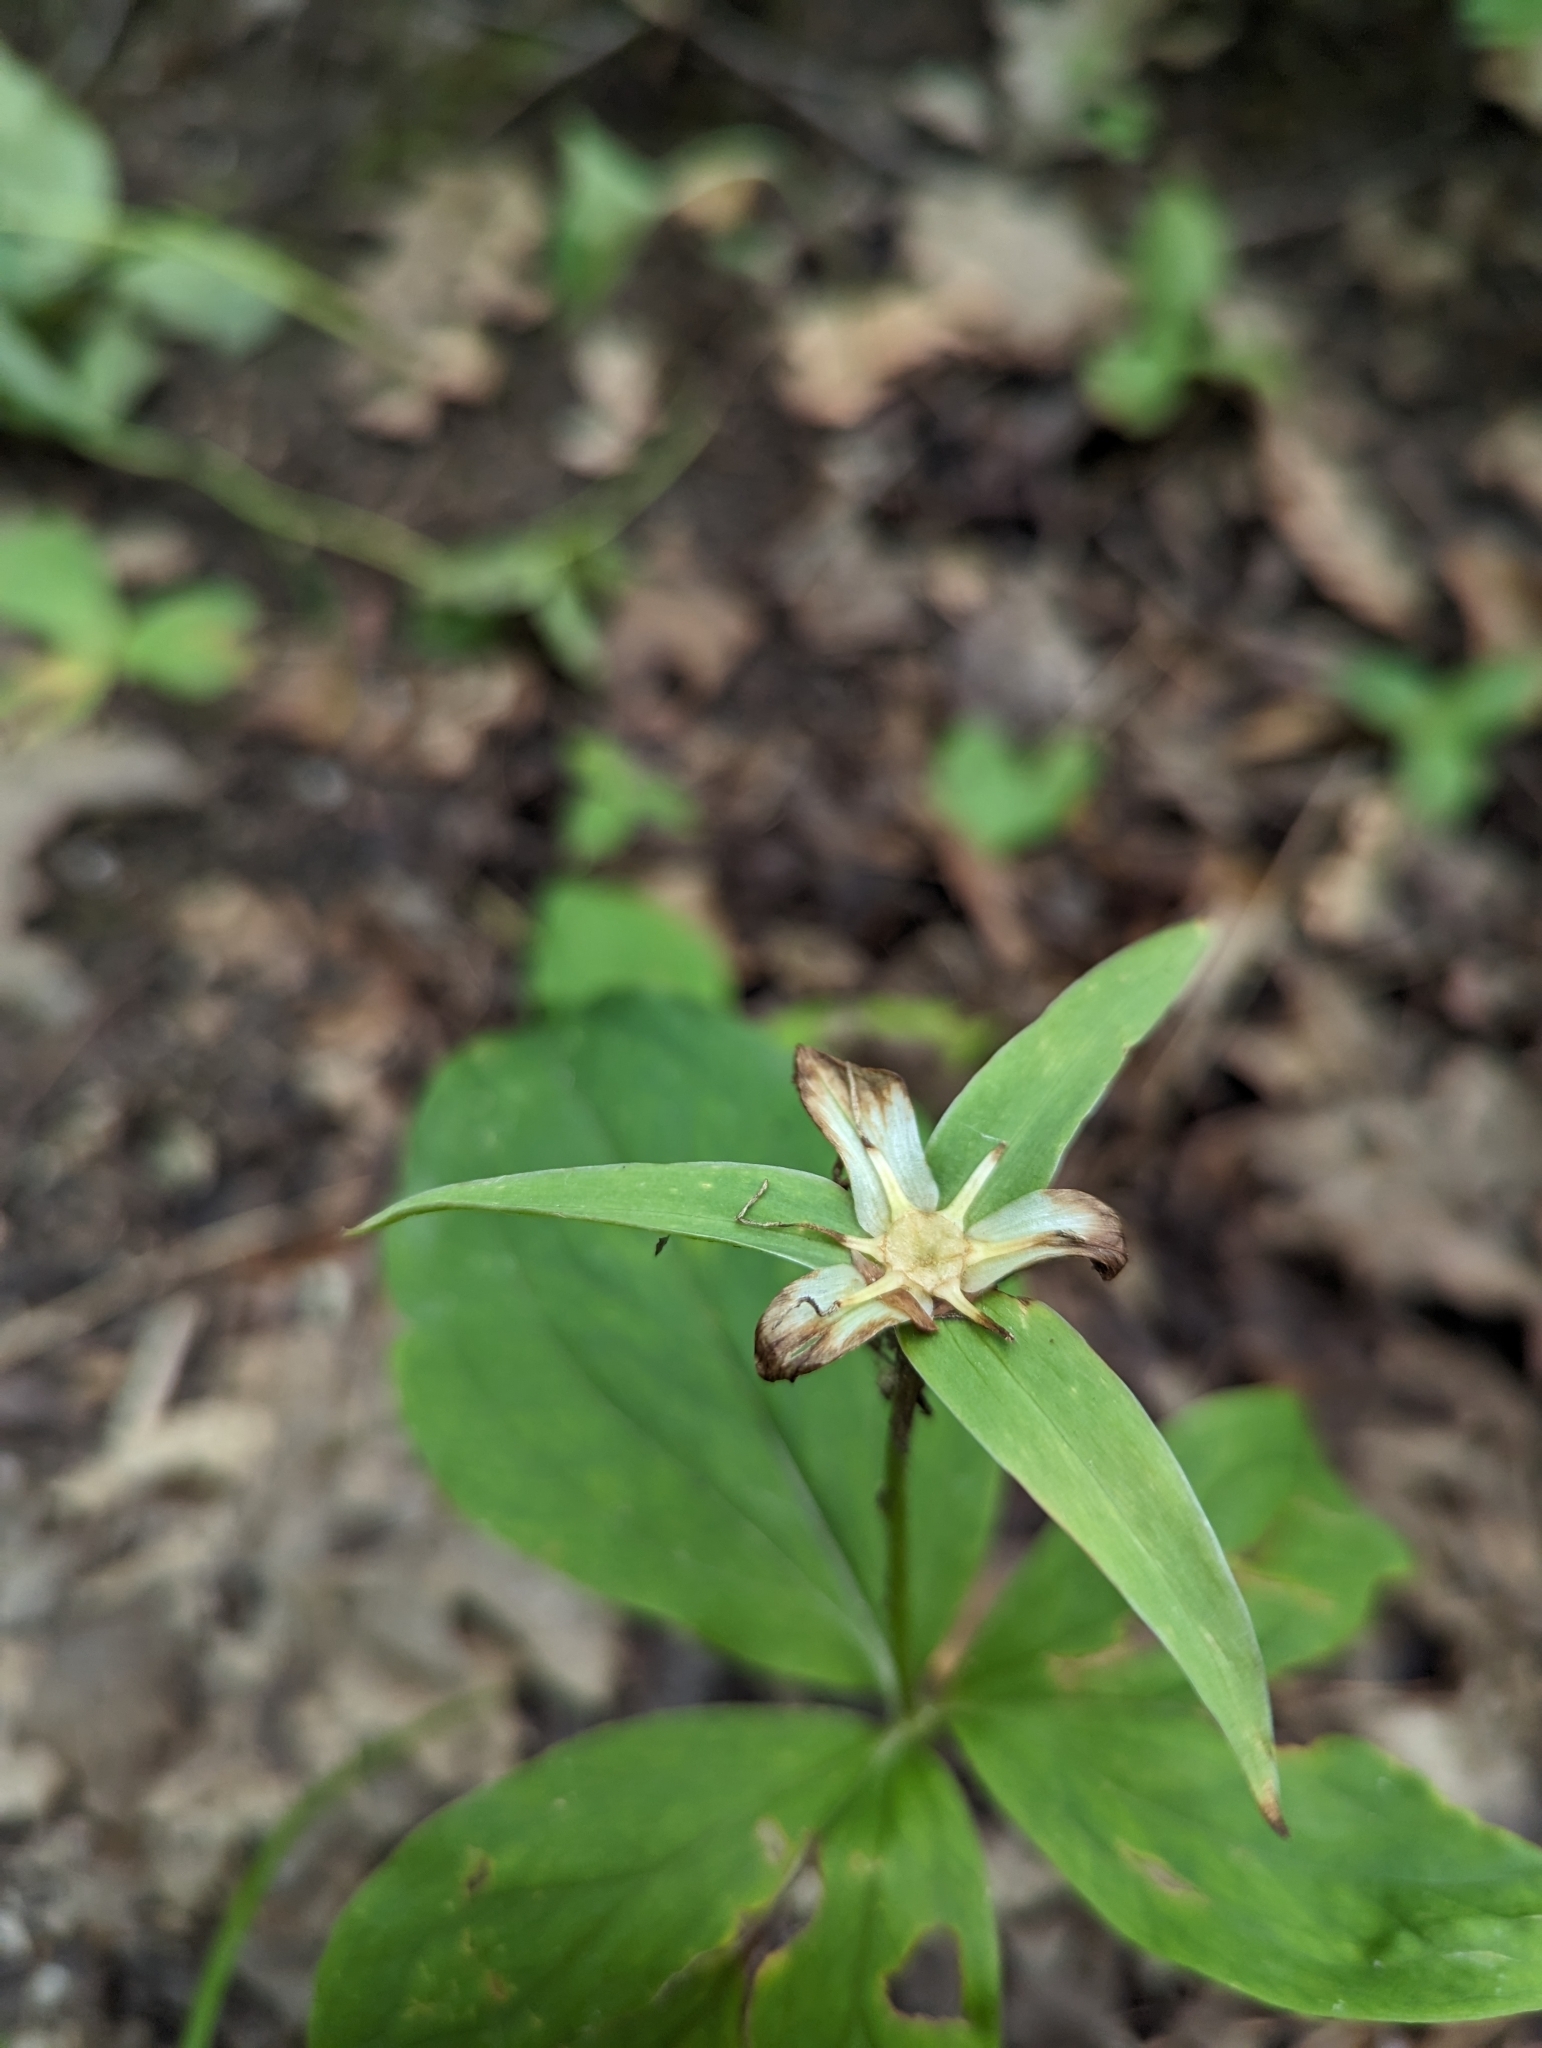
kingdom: Plantae
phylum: Tracheophyta
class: Liliopsida
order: Liliales
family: Melanthiaceae
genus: Trillium
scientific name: Trillium grandiflorum
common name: Great white trillium
